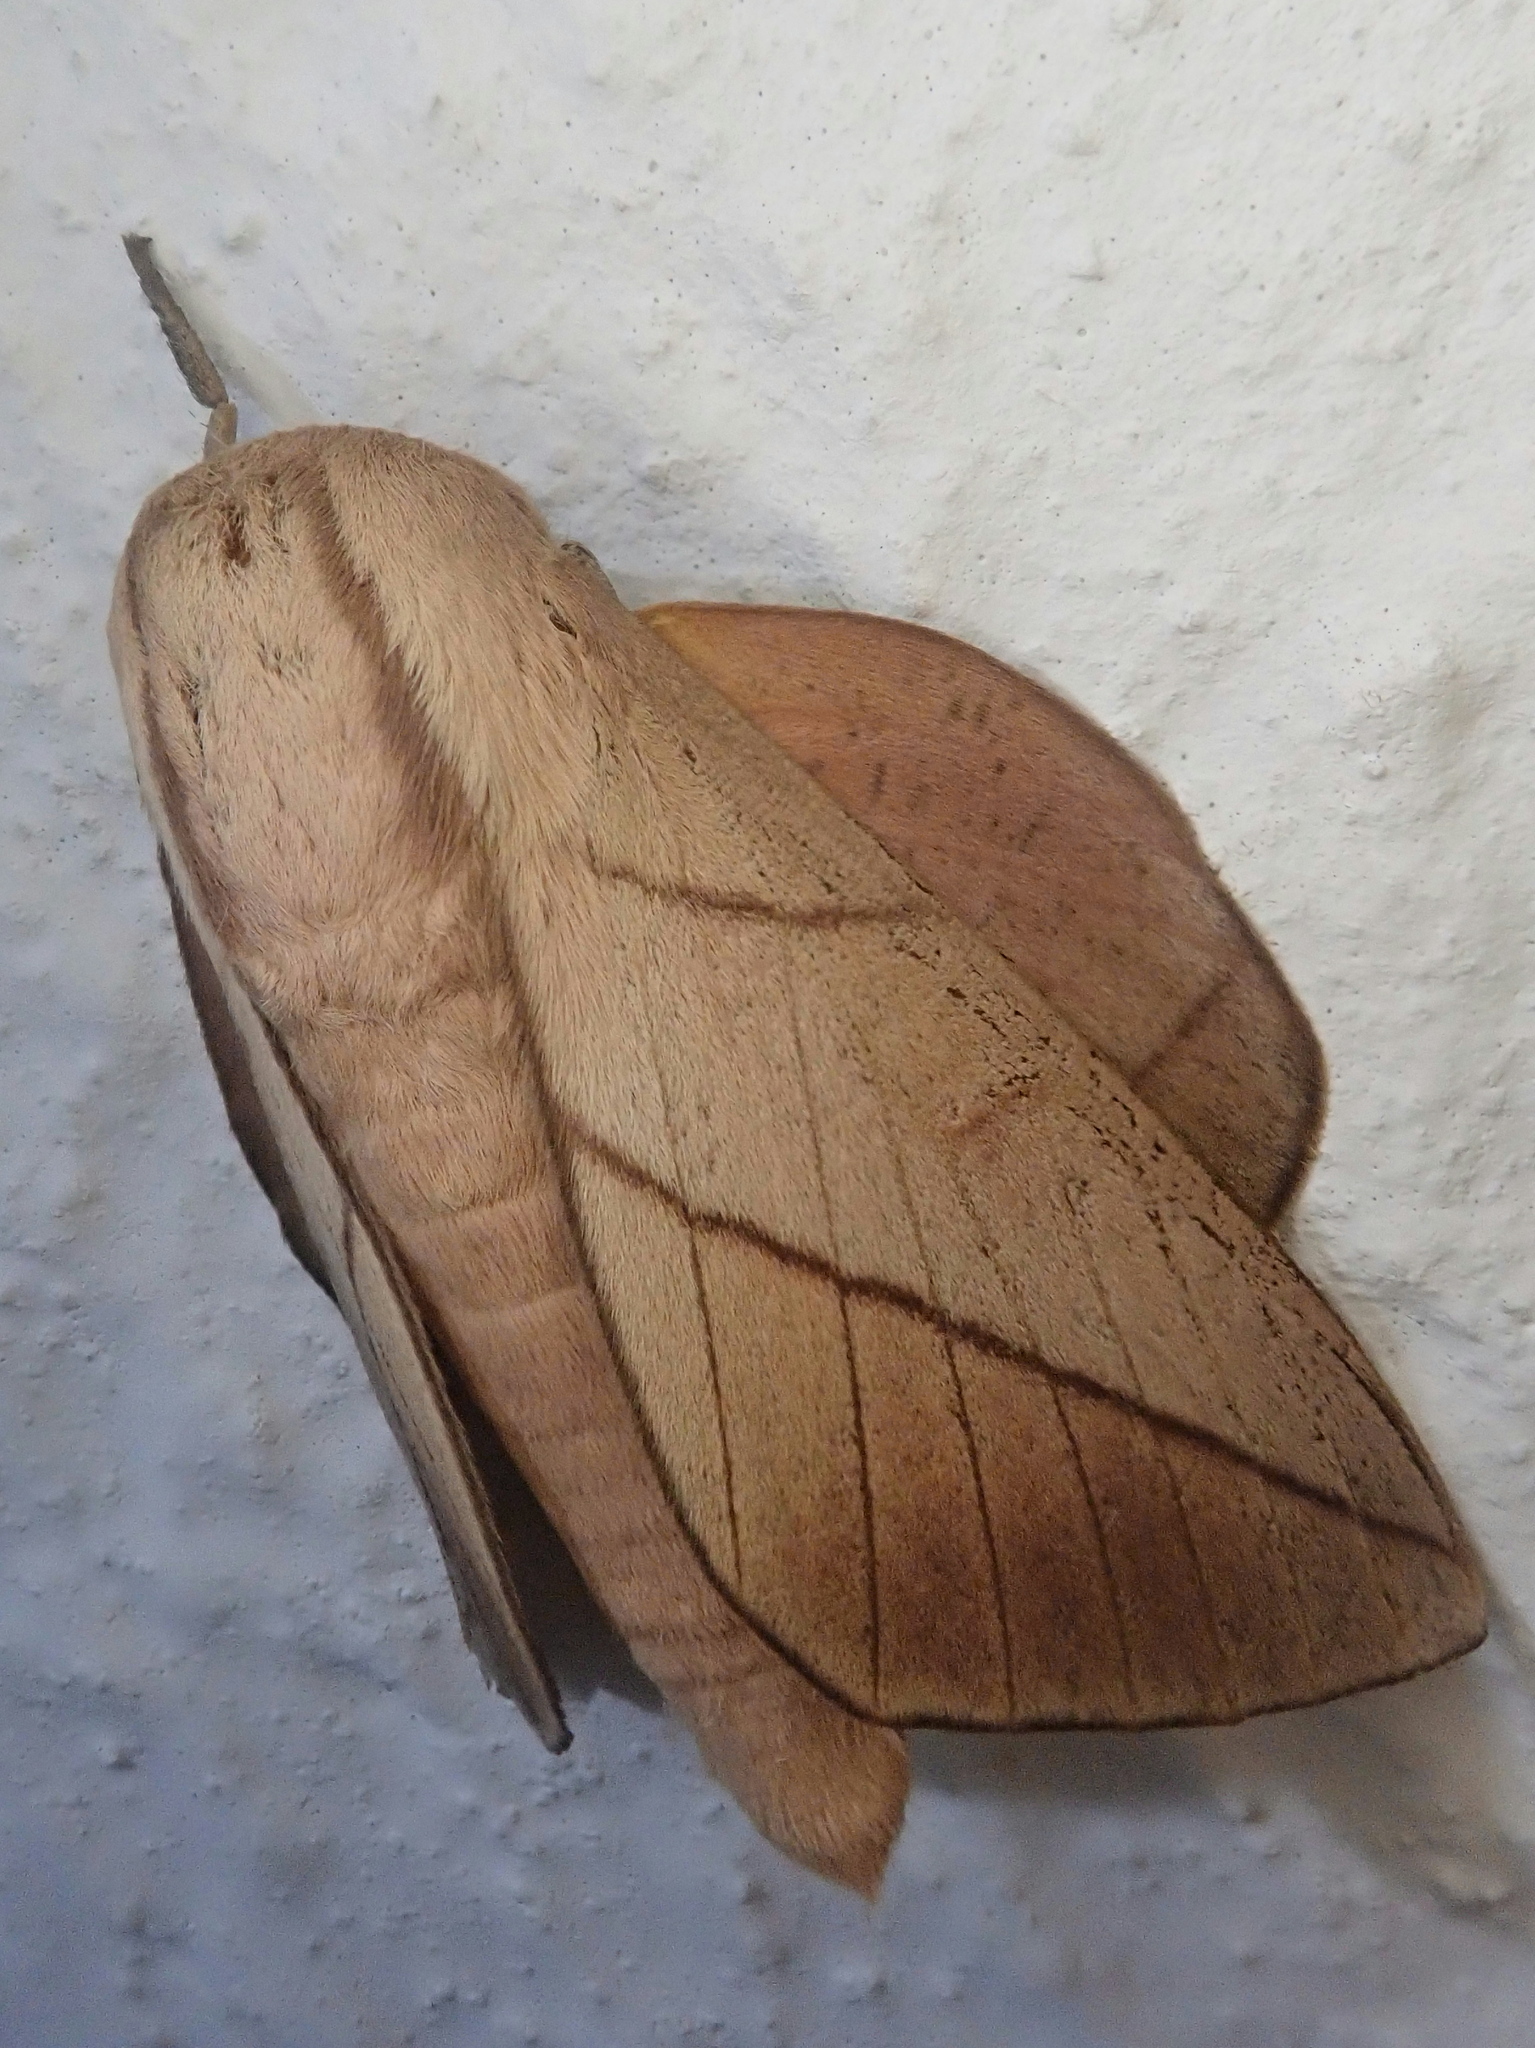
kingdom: Animalia
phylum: Arthropoda
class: Insecta
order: Lepidoptera
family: Saturniidae
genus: Citioica
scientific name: Citioica anthonilis
